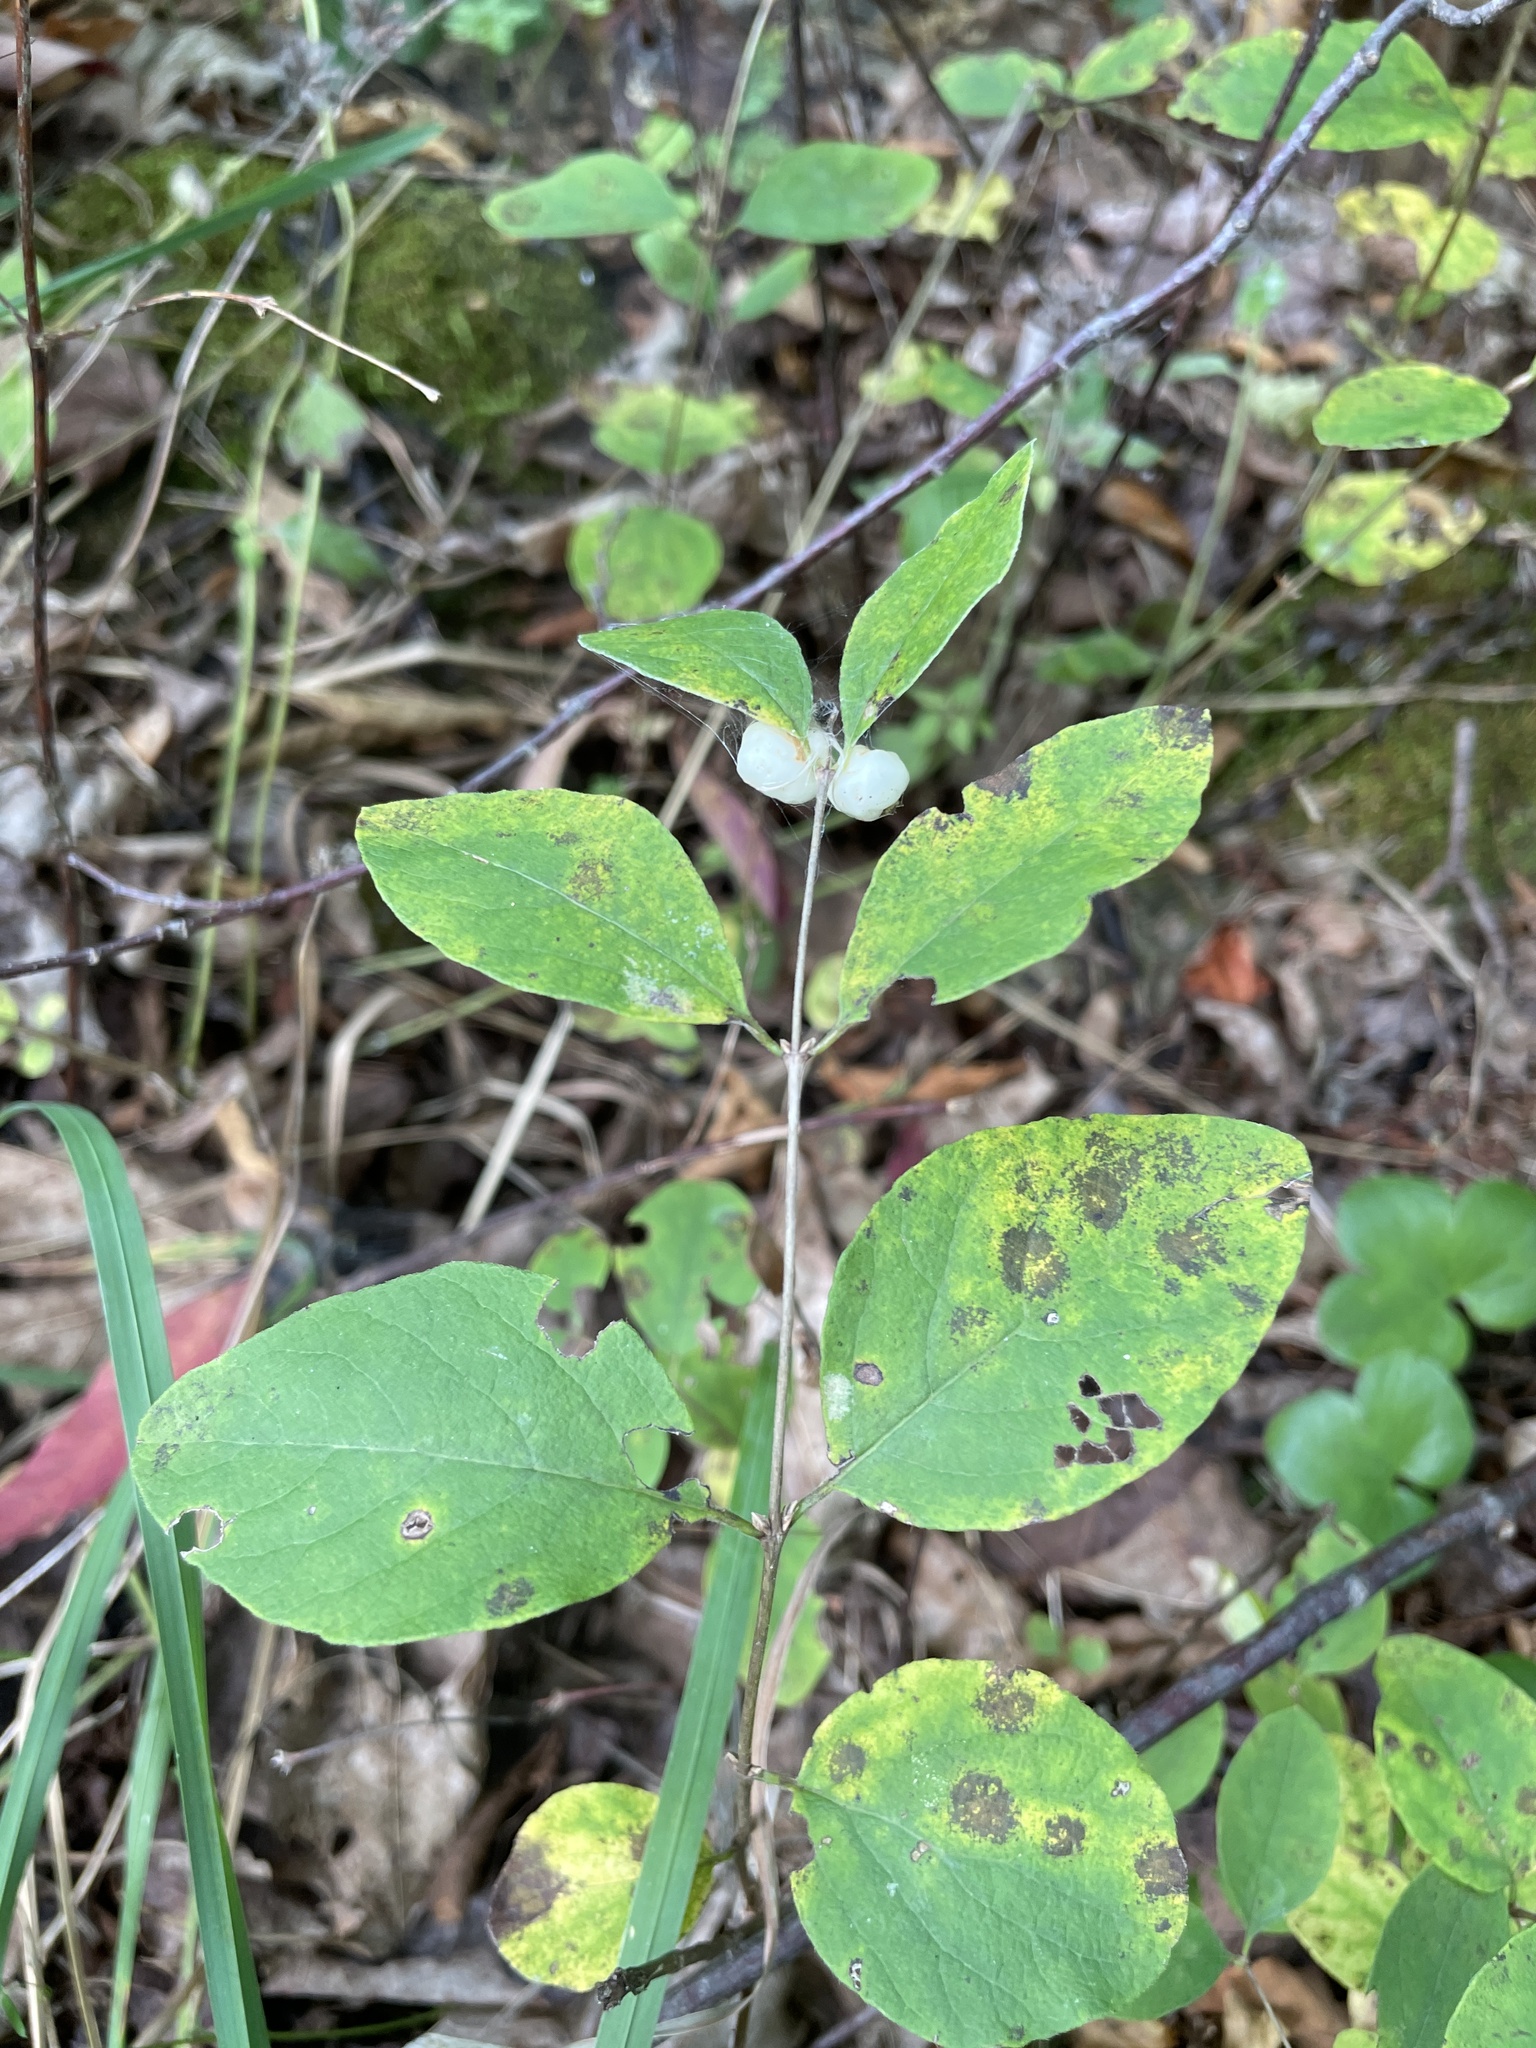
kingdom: Plantae
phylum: Tracheophyta
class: Magnoliopsida
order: Dipsacales
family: Caprifoliaceae
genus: Symphoricarpos
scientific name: Symphoricarpos albus
